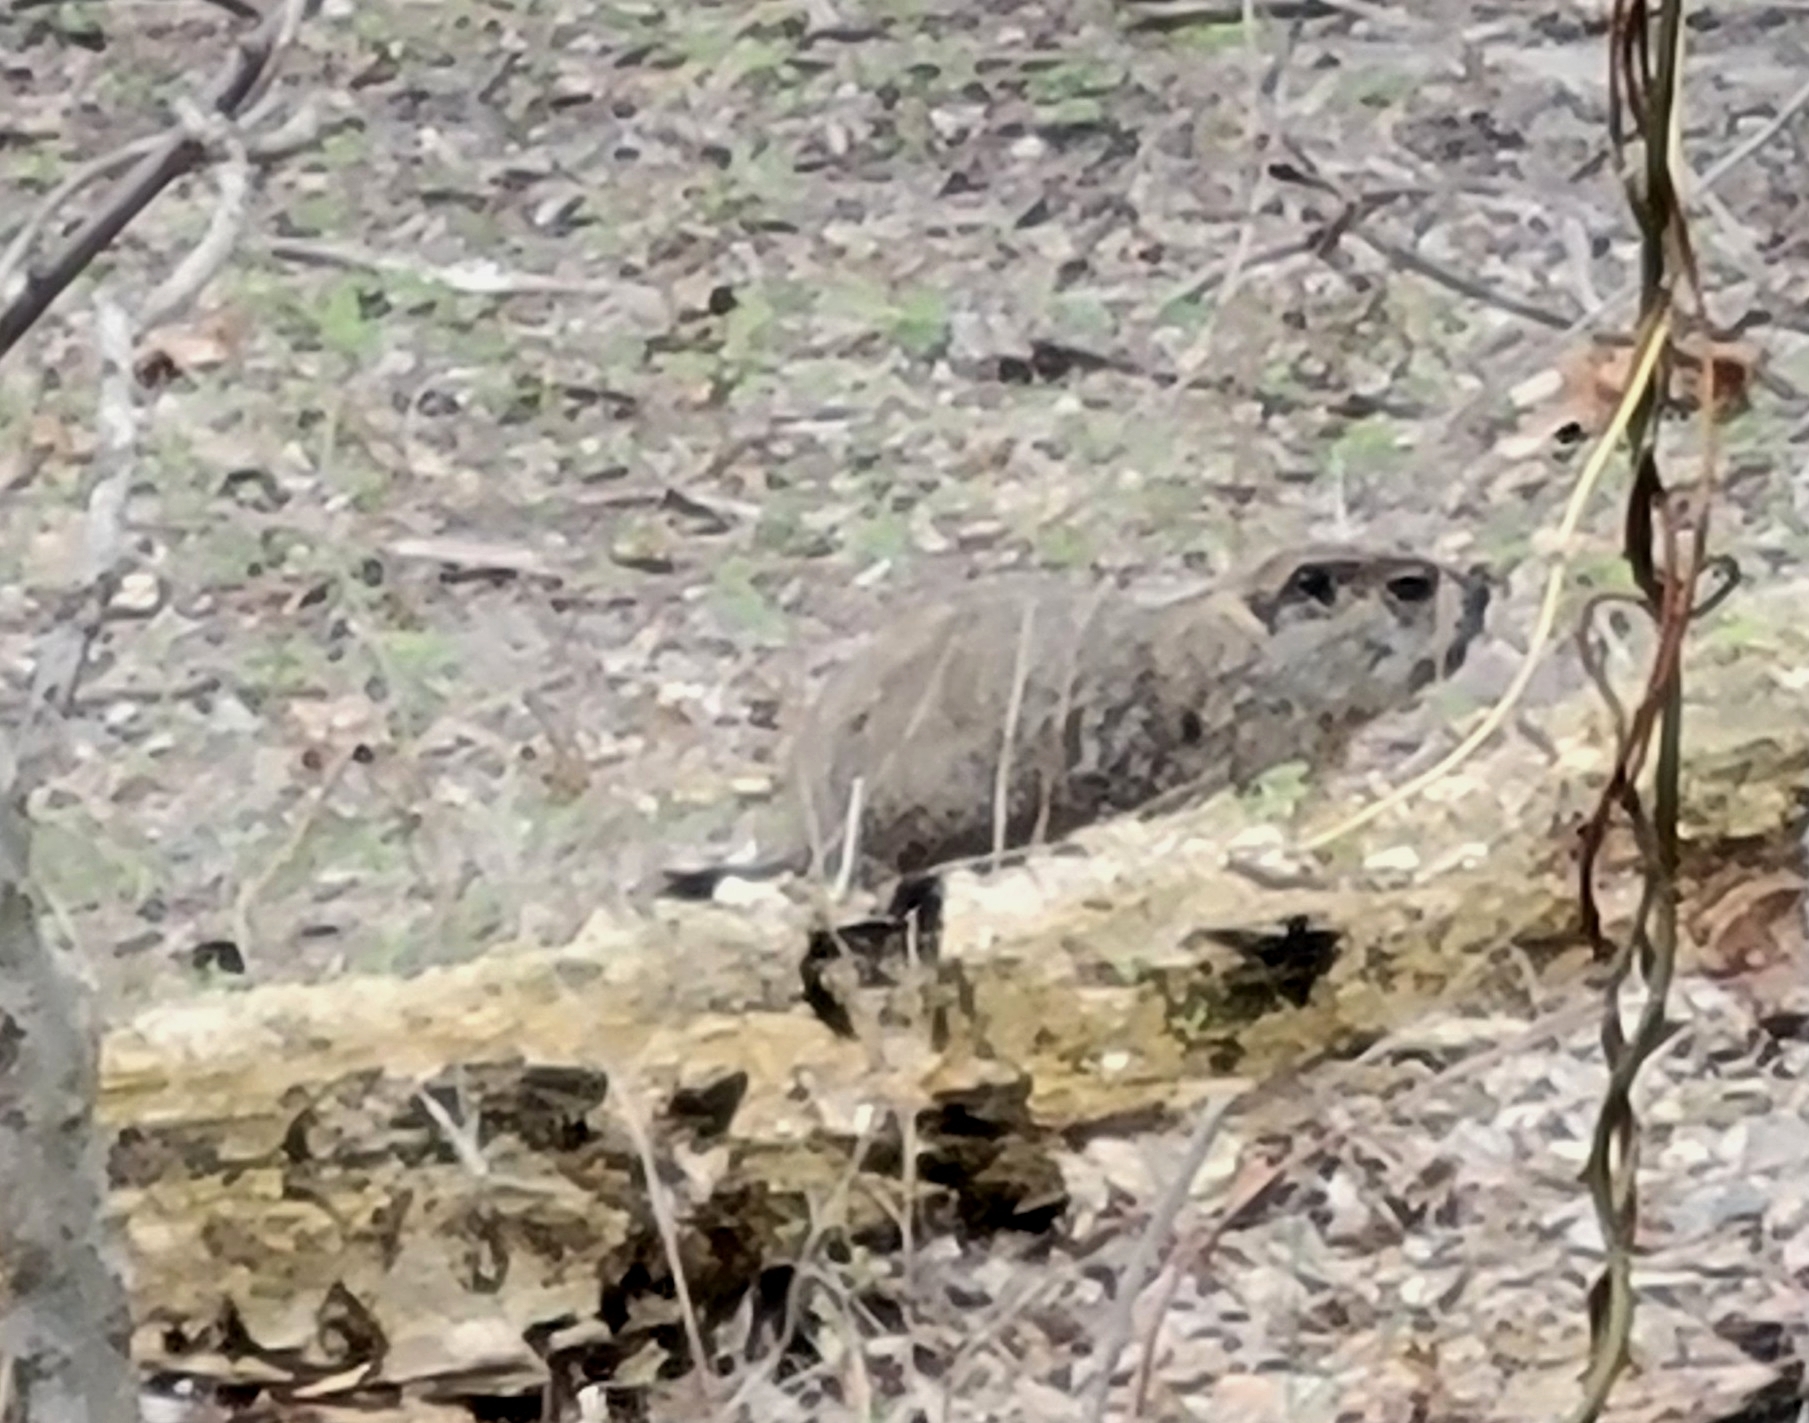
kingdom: Animalia
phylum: Chordata
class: Mammalia
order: Rodentia
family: Sciuridae
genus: Marmota
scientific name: Marmota monax
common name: Groundhog
